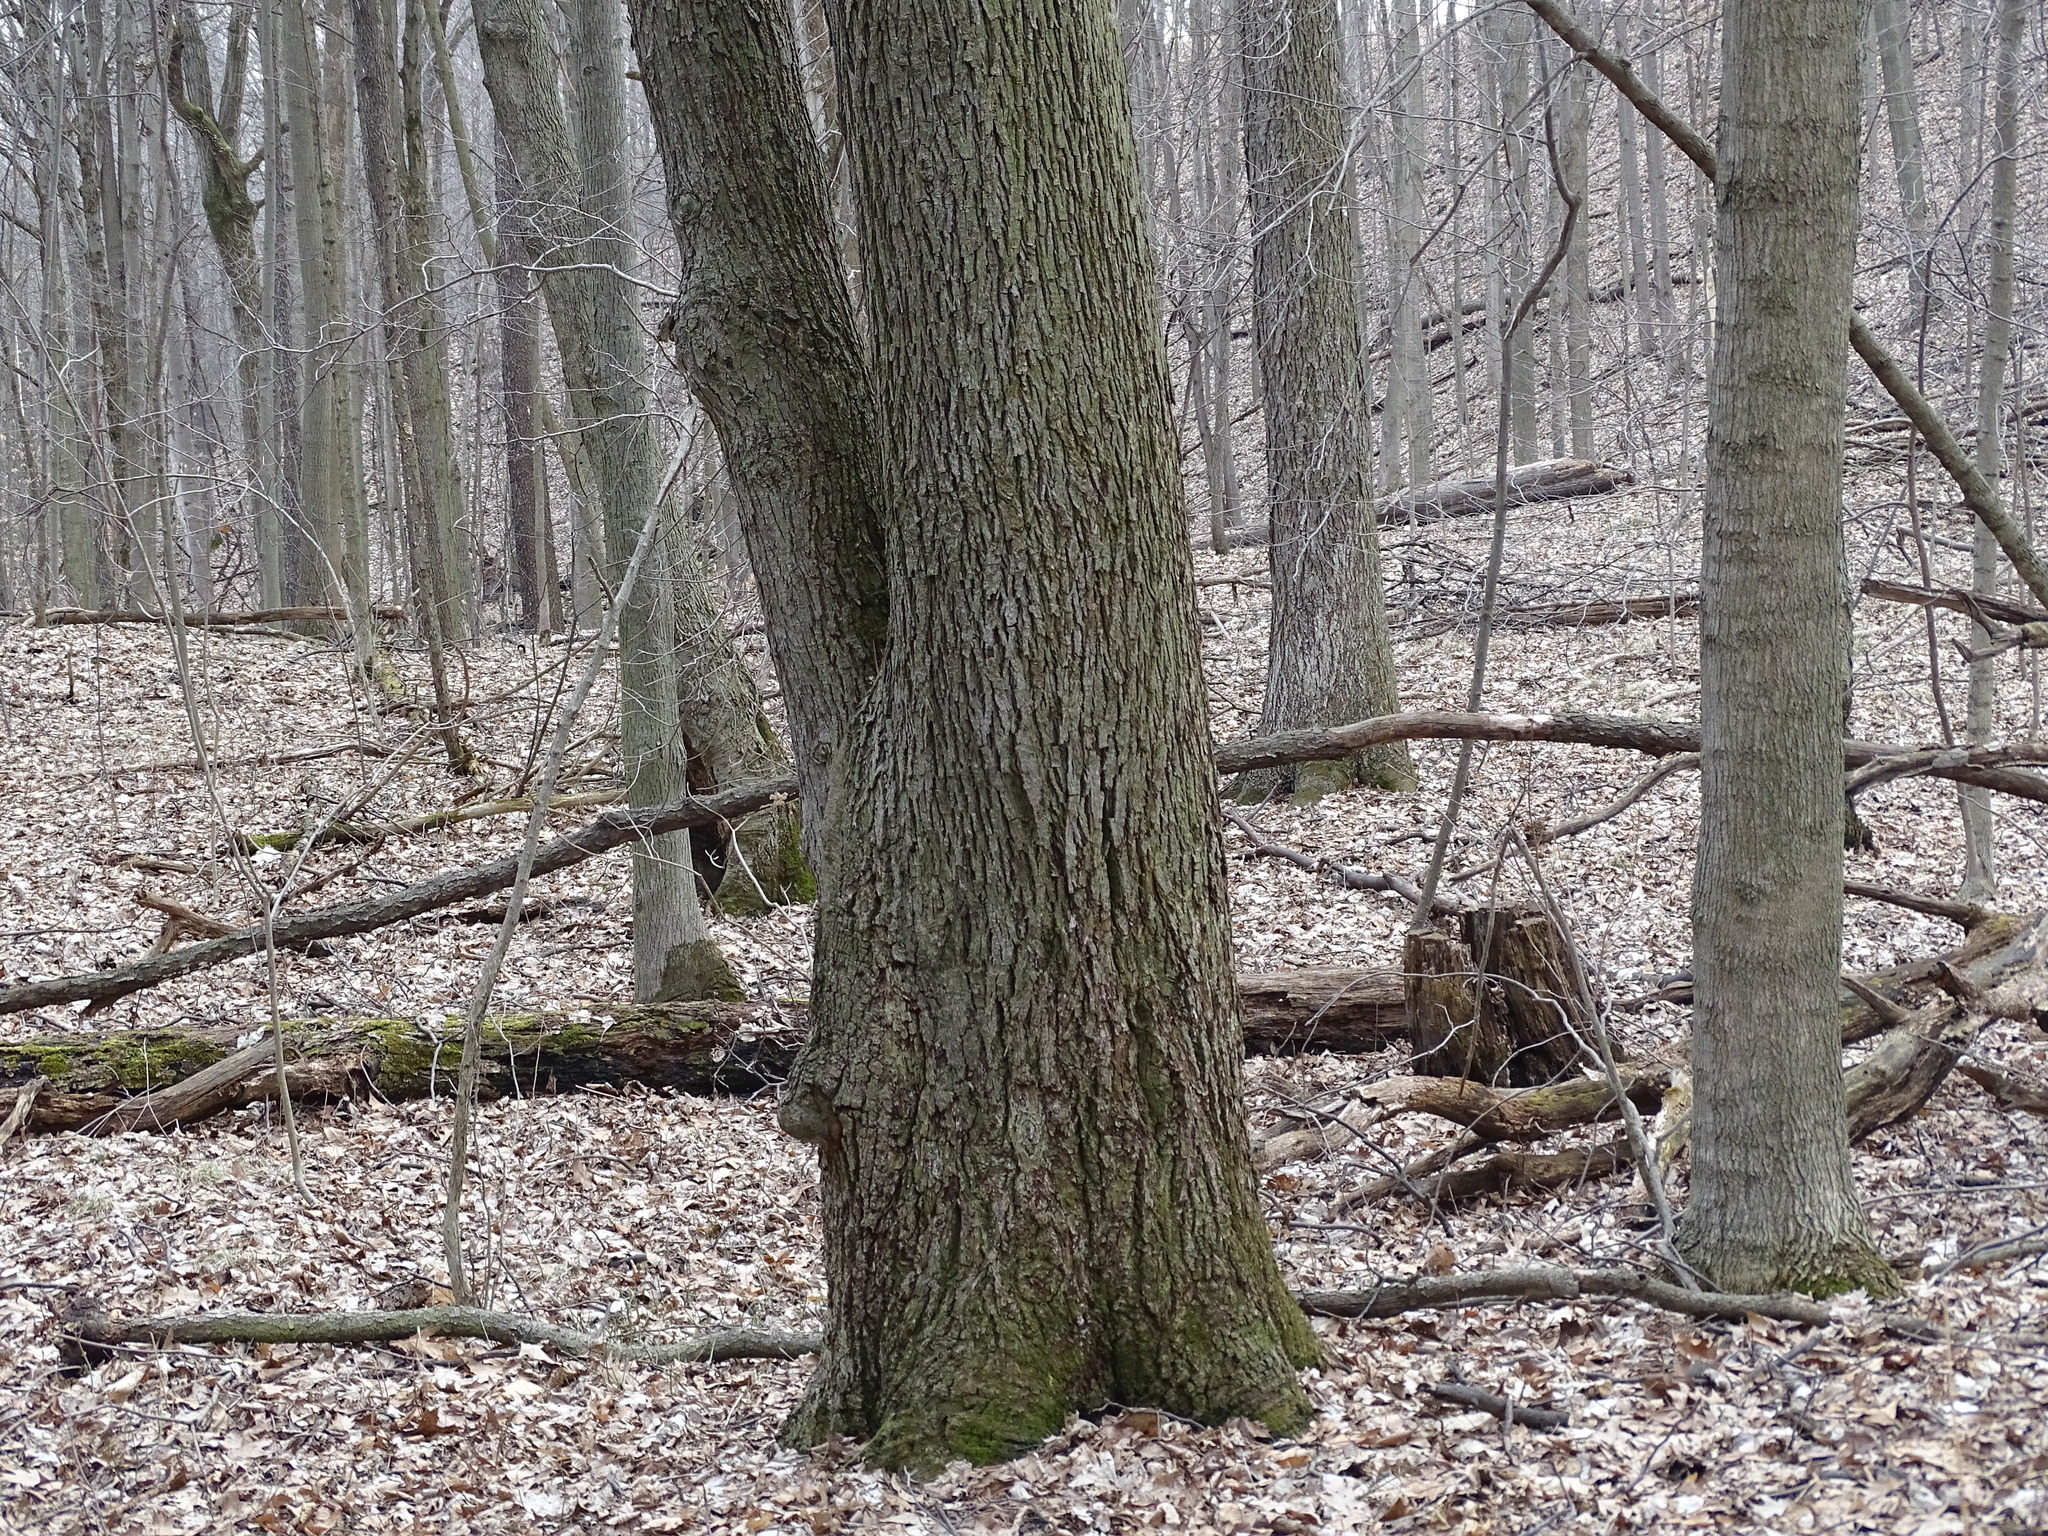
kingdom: Plantae
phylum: Tracheophyta
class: Magnoliopsida
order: Fagales
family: Juglandaceae
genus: Carya
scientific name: Carya glabra
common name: Pignut hickory
